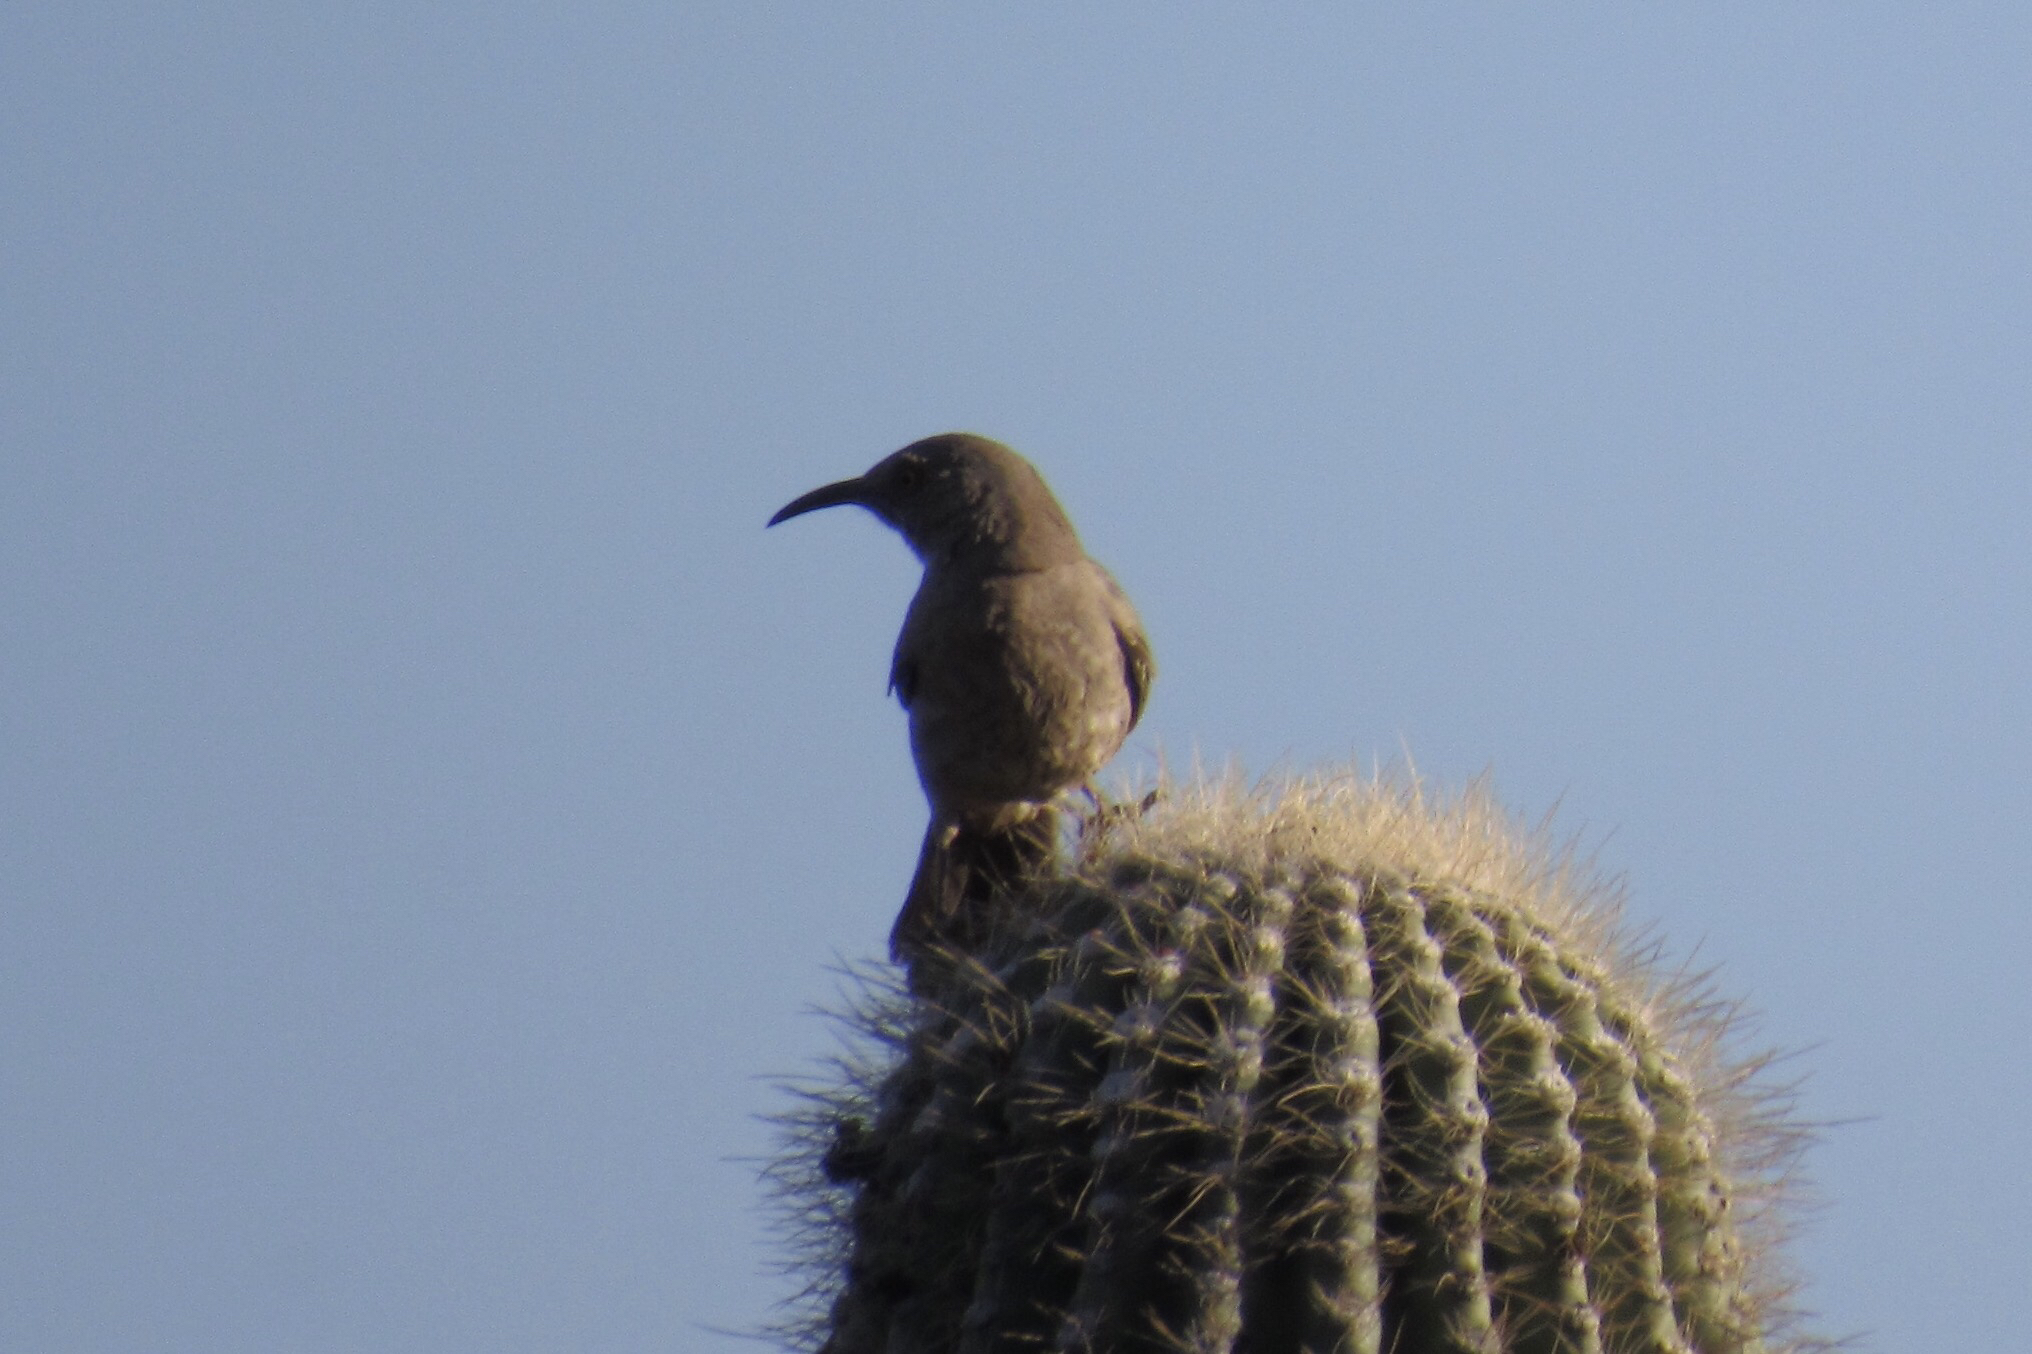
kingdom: Animalia
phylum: Chordata
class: Aves
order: Passeriformes
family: Mimidae
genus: Toxostoma
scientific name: Toxostoma curvirostre
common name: Curve-billed thrasher
